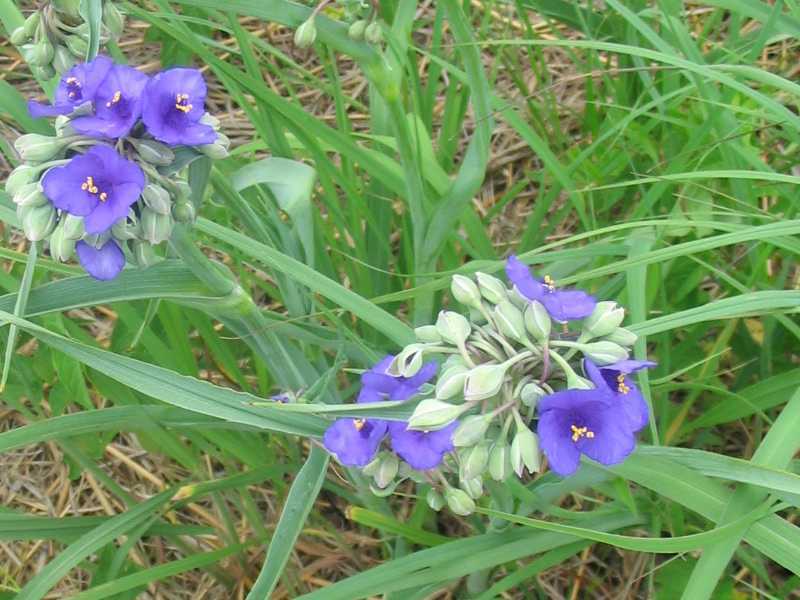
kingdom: Plantae
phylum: Tracheophyta
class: Liliopsida
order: Commelinales
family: Commelinaceae
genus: Tradescantia
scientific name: Tradescantia ohiensis
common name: Ohio spiderwort
